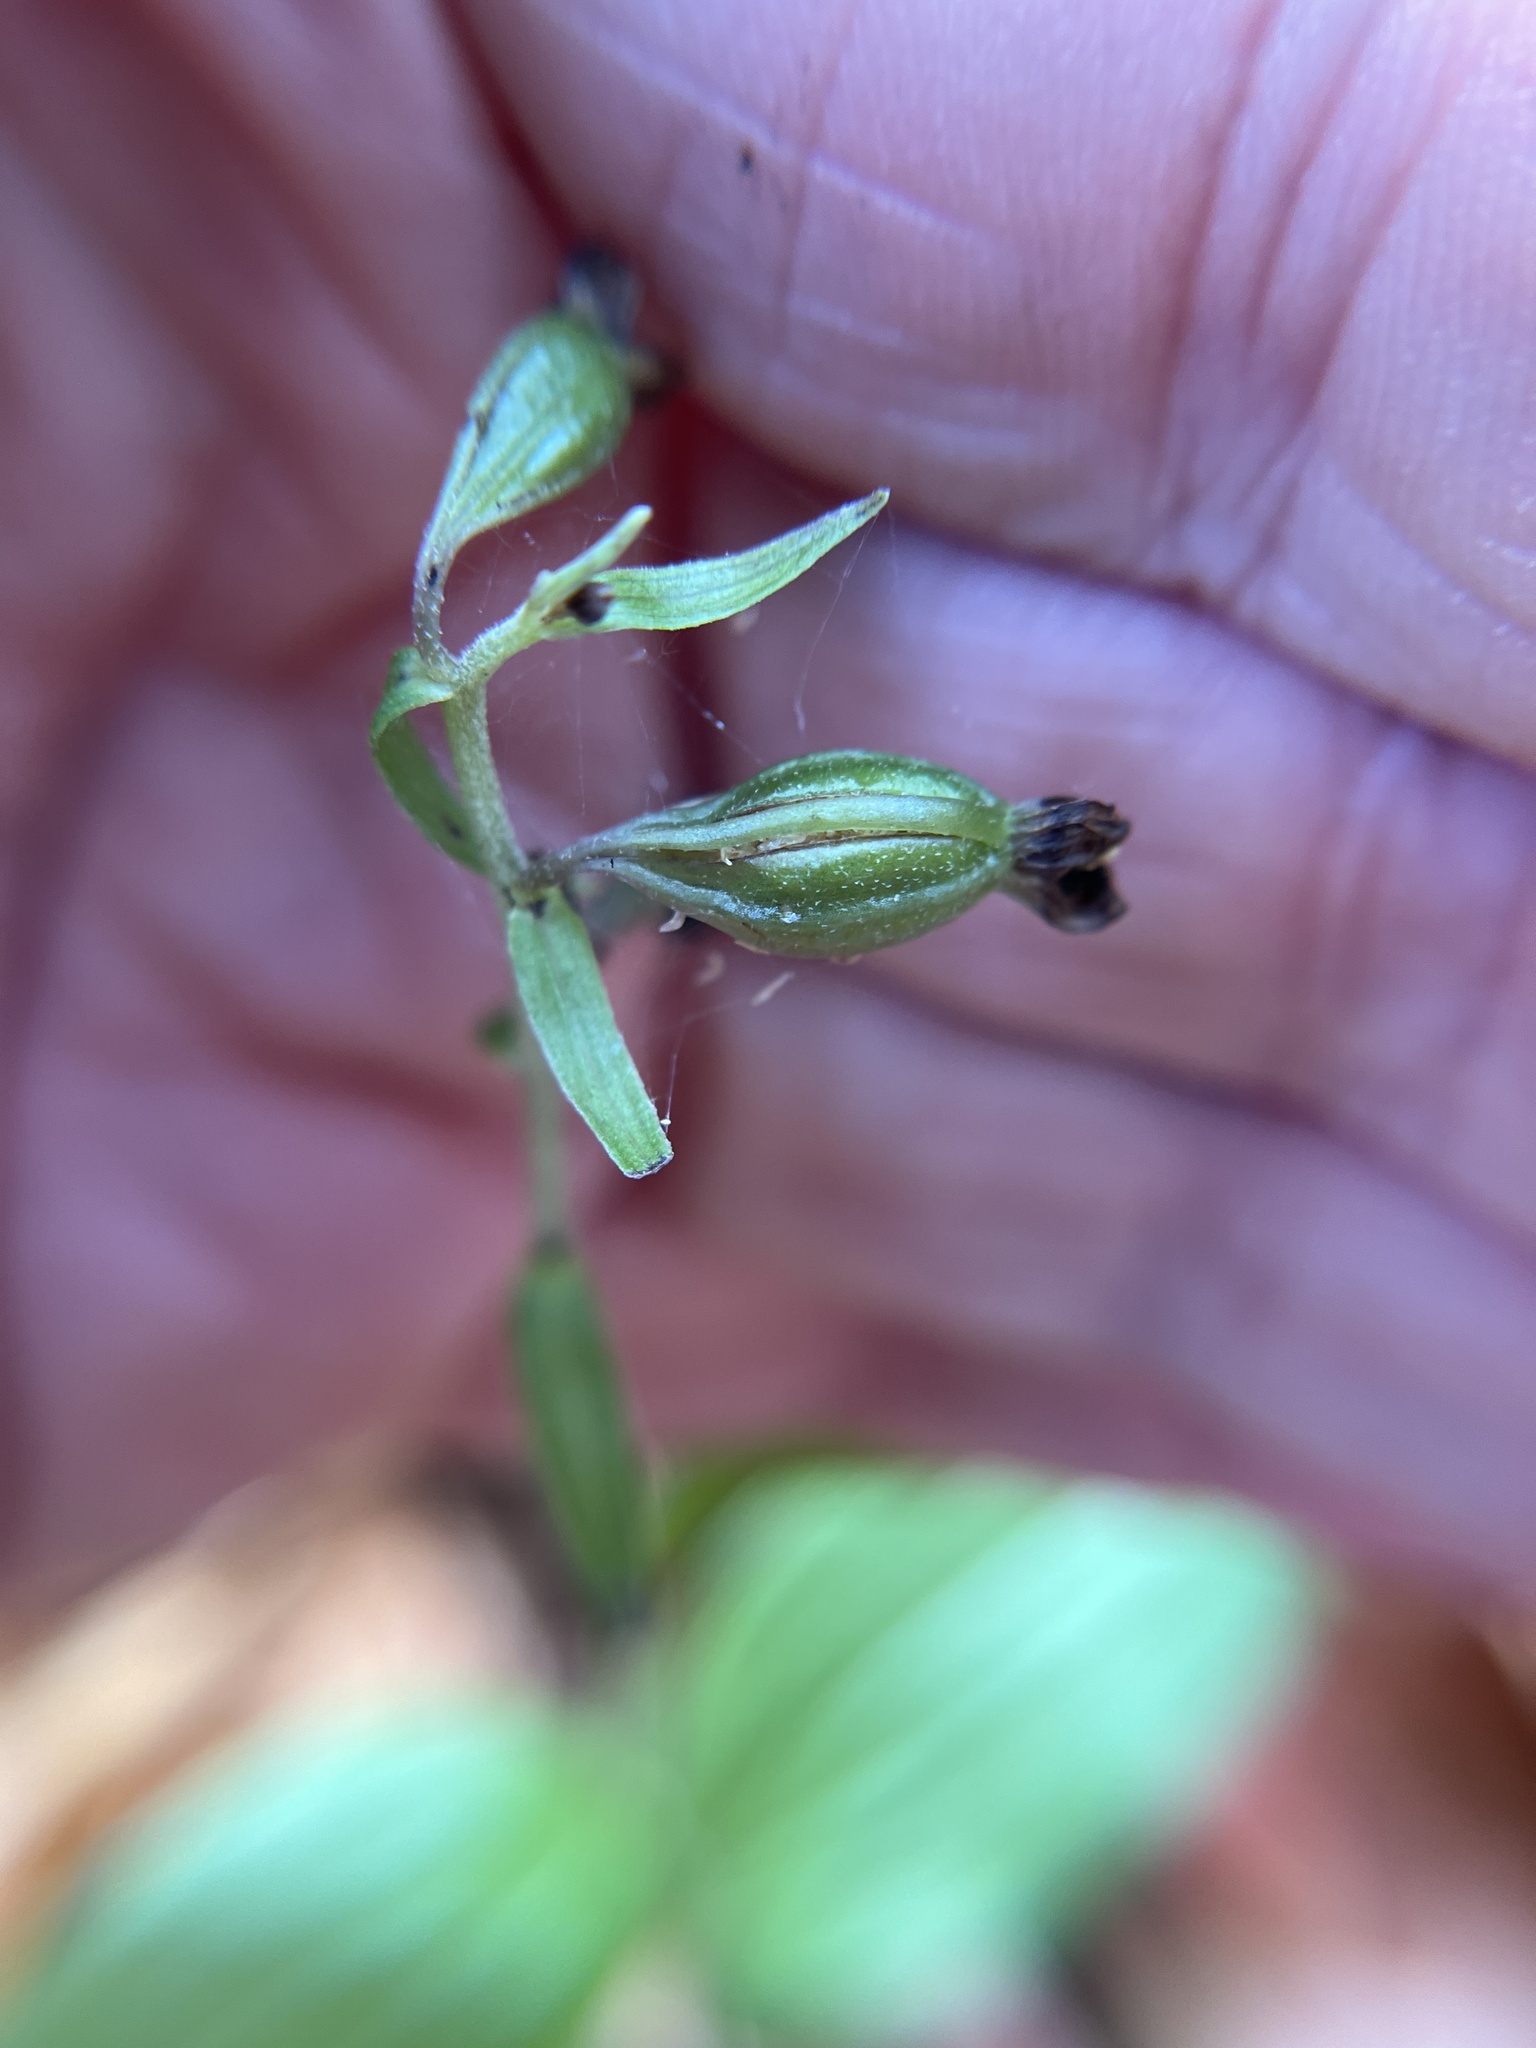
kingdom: Plantae
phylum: Tracheophyta
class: Liliopsida
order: Asparagales
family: Orchidaceae
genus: Epipactis
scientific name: Epipactis helleborine
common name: Broad-leaved helleborine
